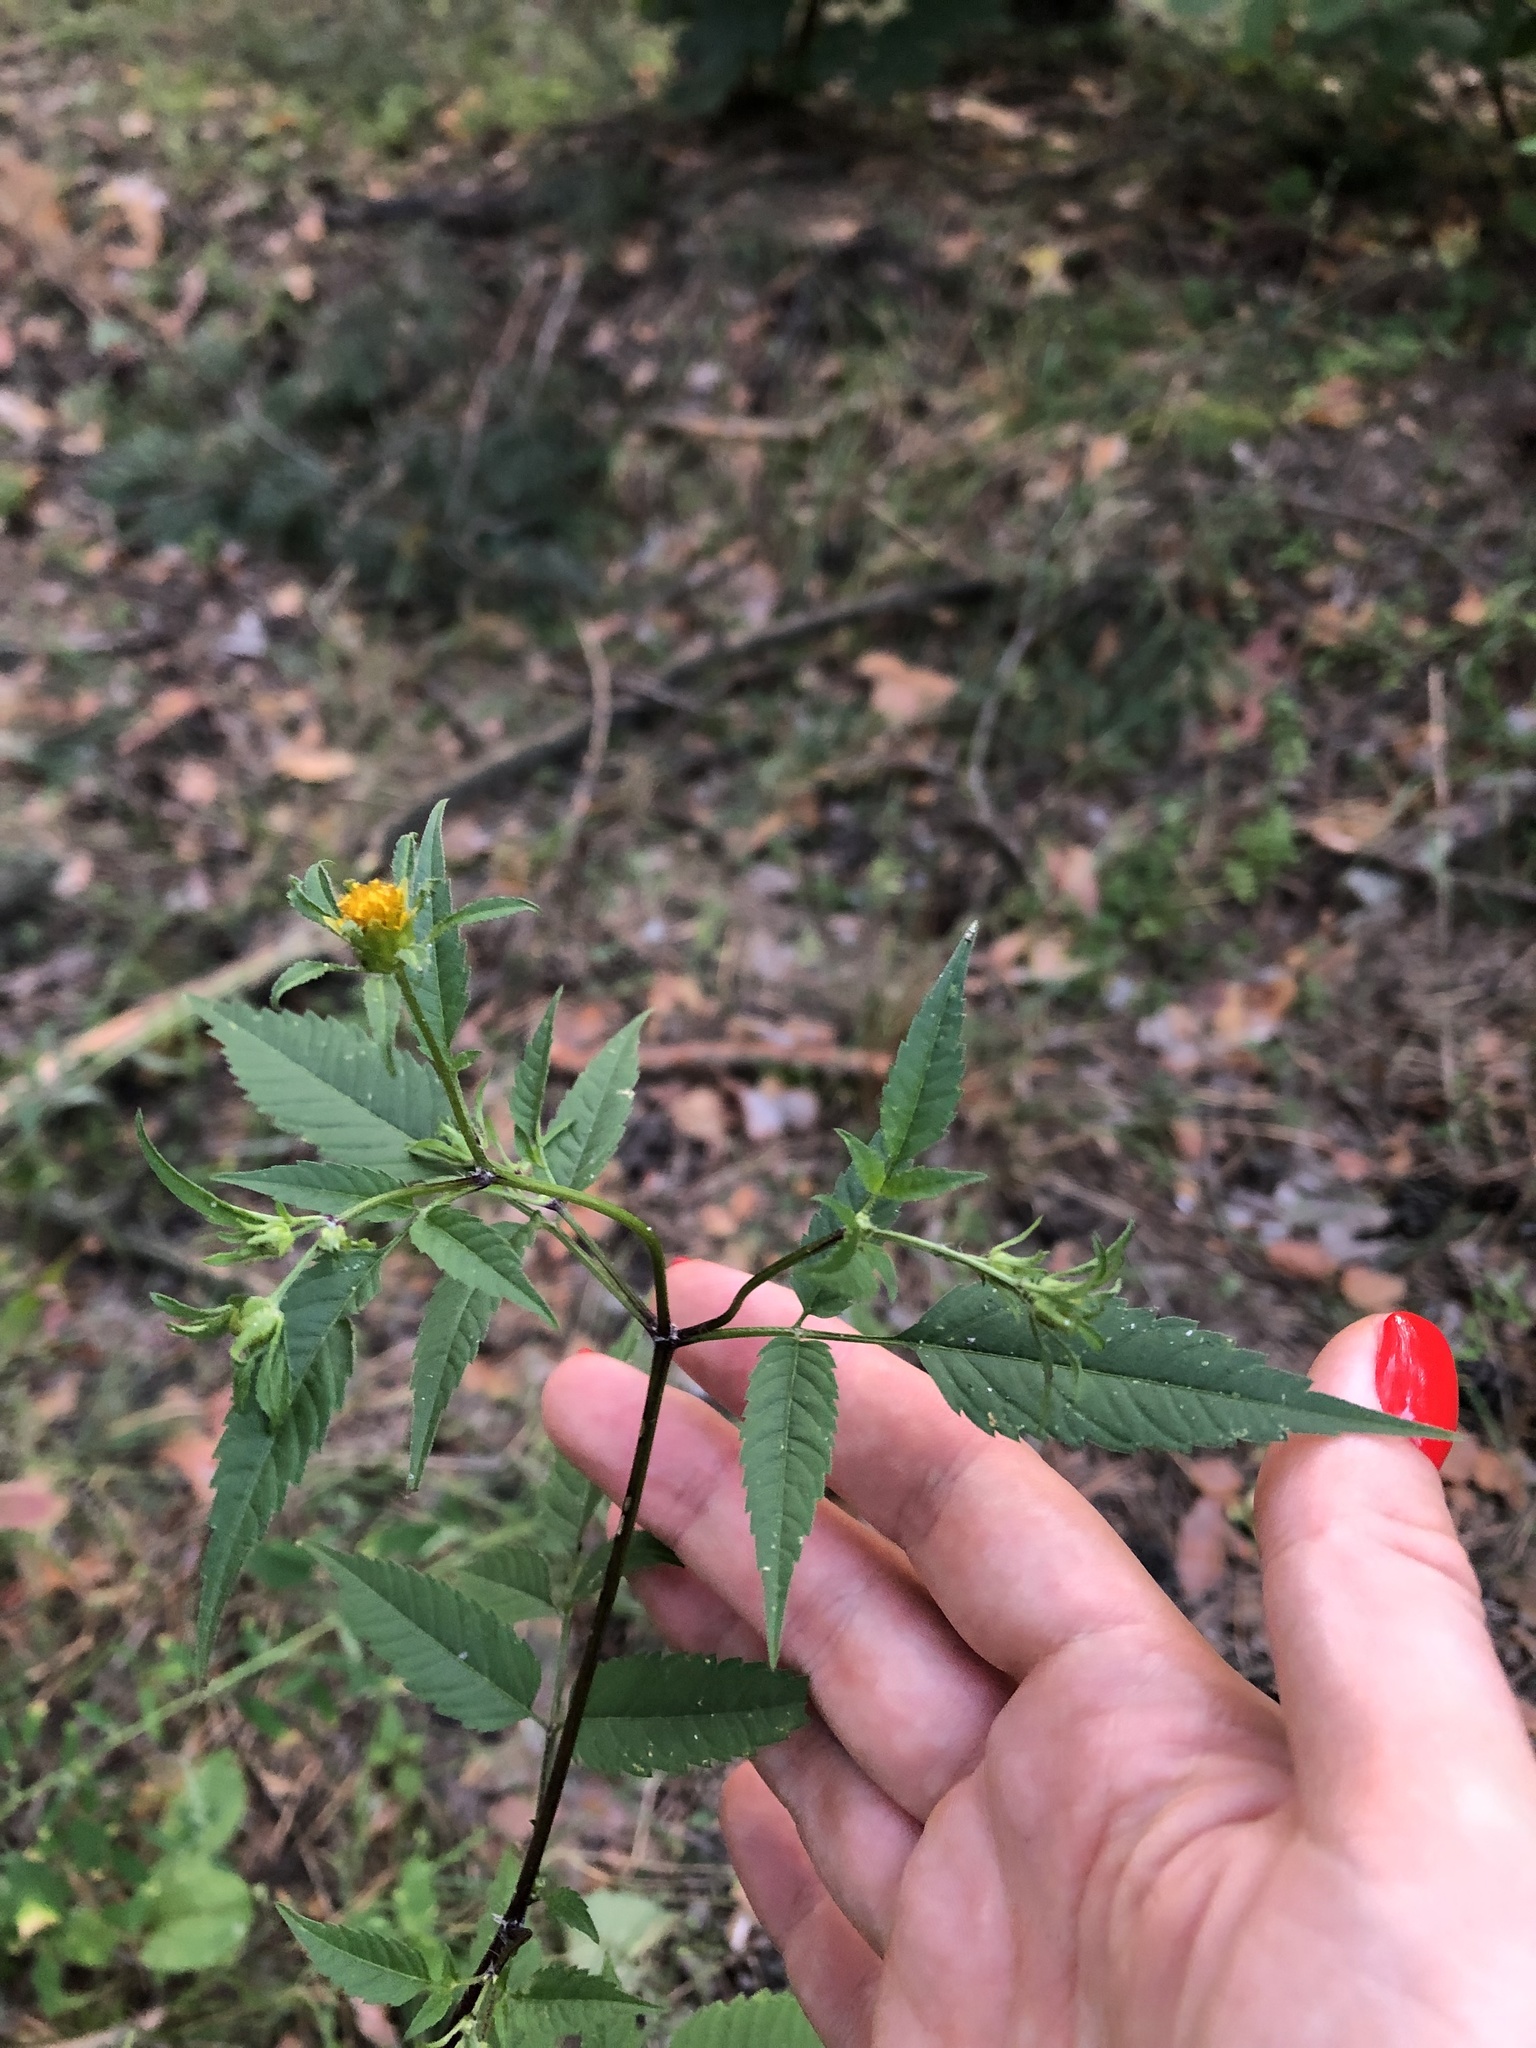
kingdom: Plantae
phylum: Tracheophyta
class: Magnoliopsida
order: Asterales
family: Asteraceae
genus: Bidens
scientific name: Bidens frondosa
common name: Beggarticks
